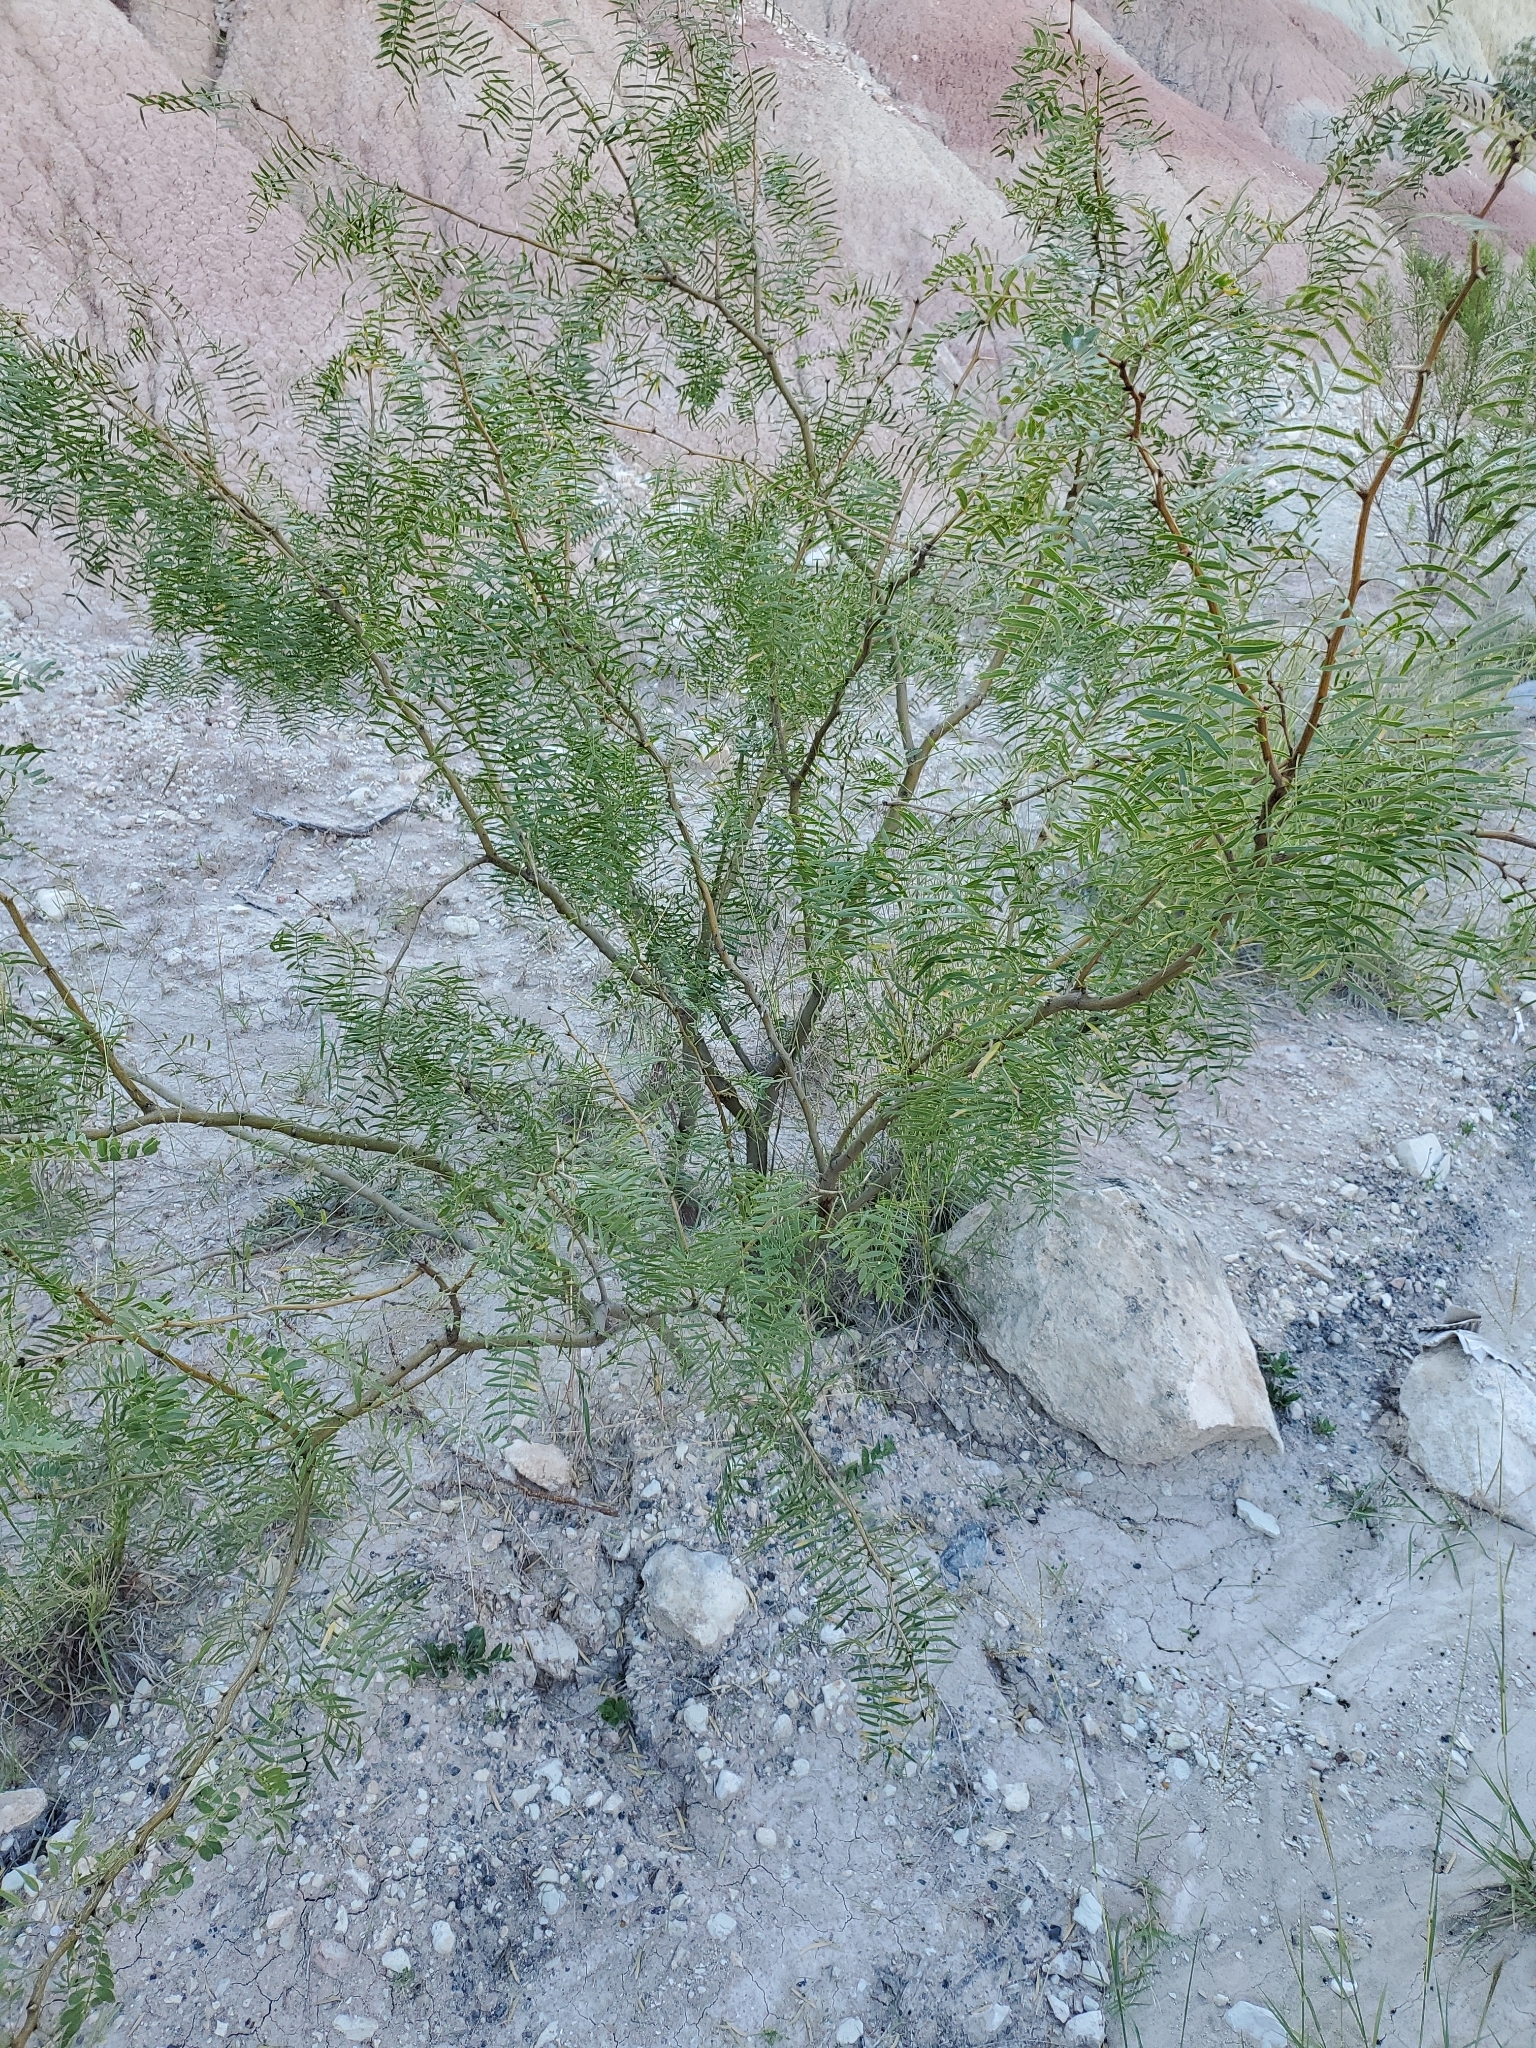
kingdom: Plantae
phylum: Tracheophyta
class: Magnoliopsida
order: Fabales
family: Fabaceae
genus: Prosopis
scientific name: Prosopis glandulosa
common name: Honey mesquite
